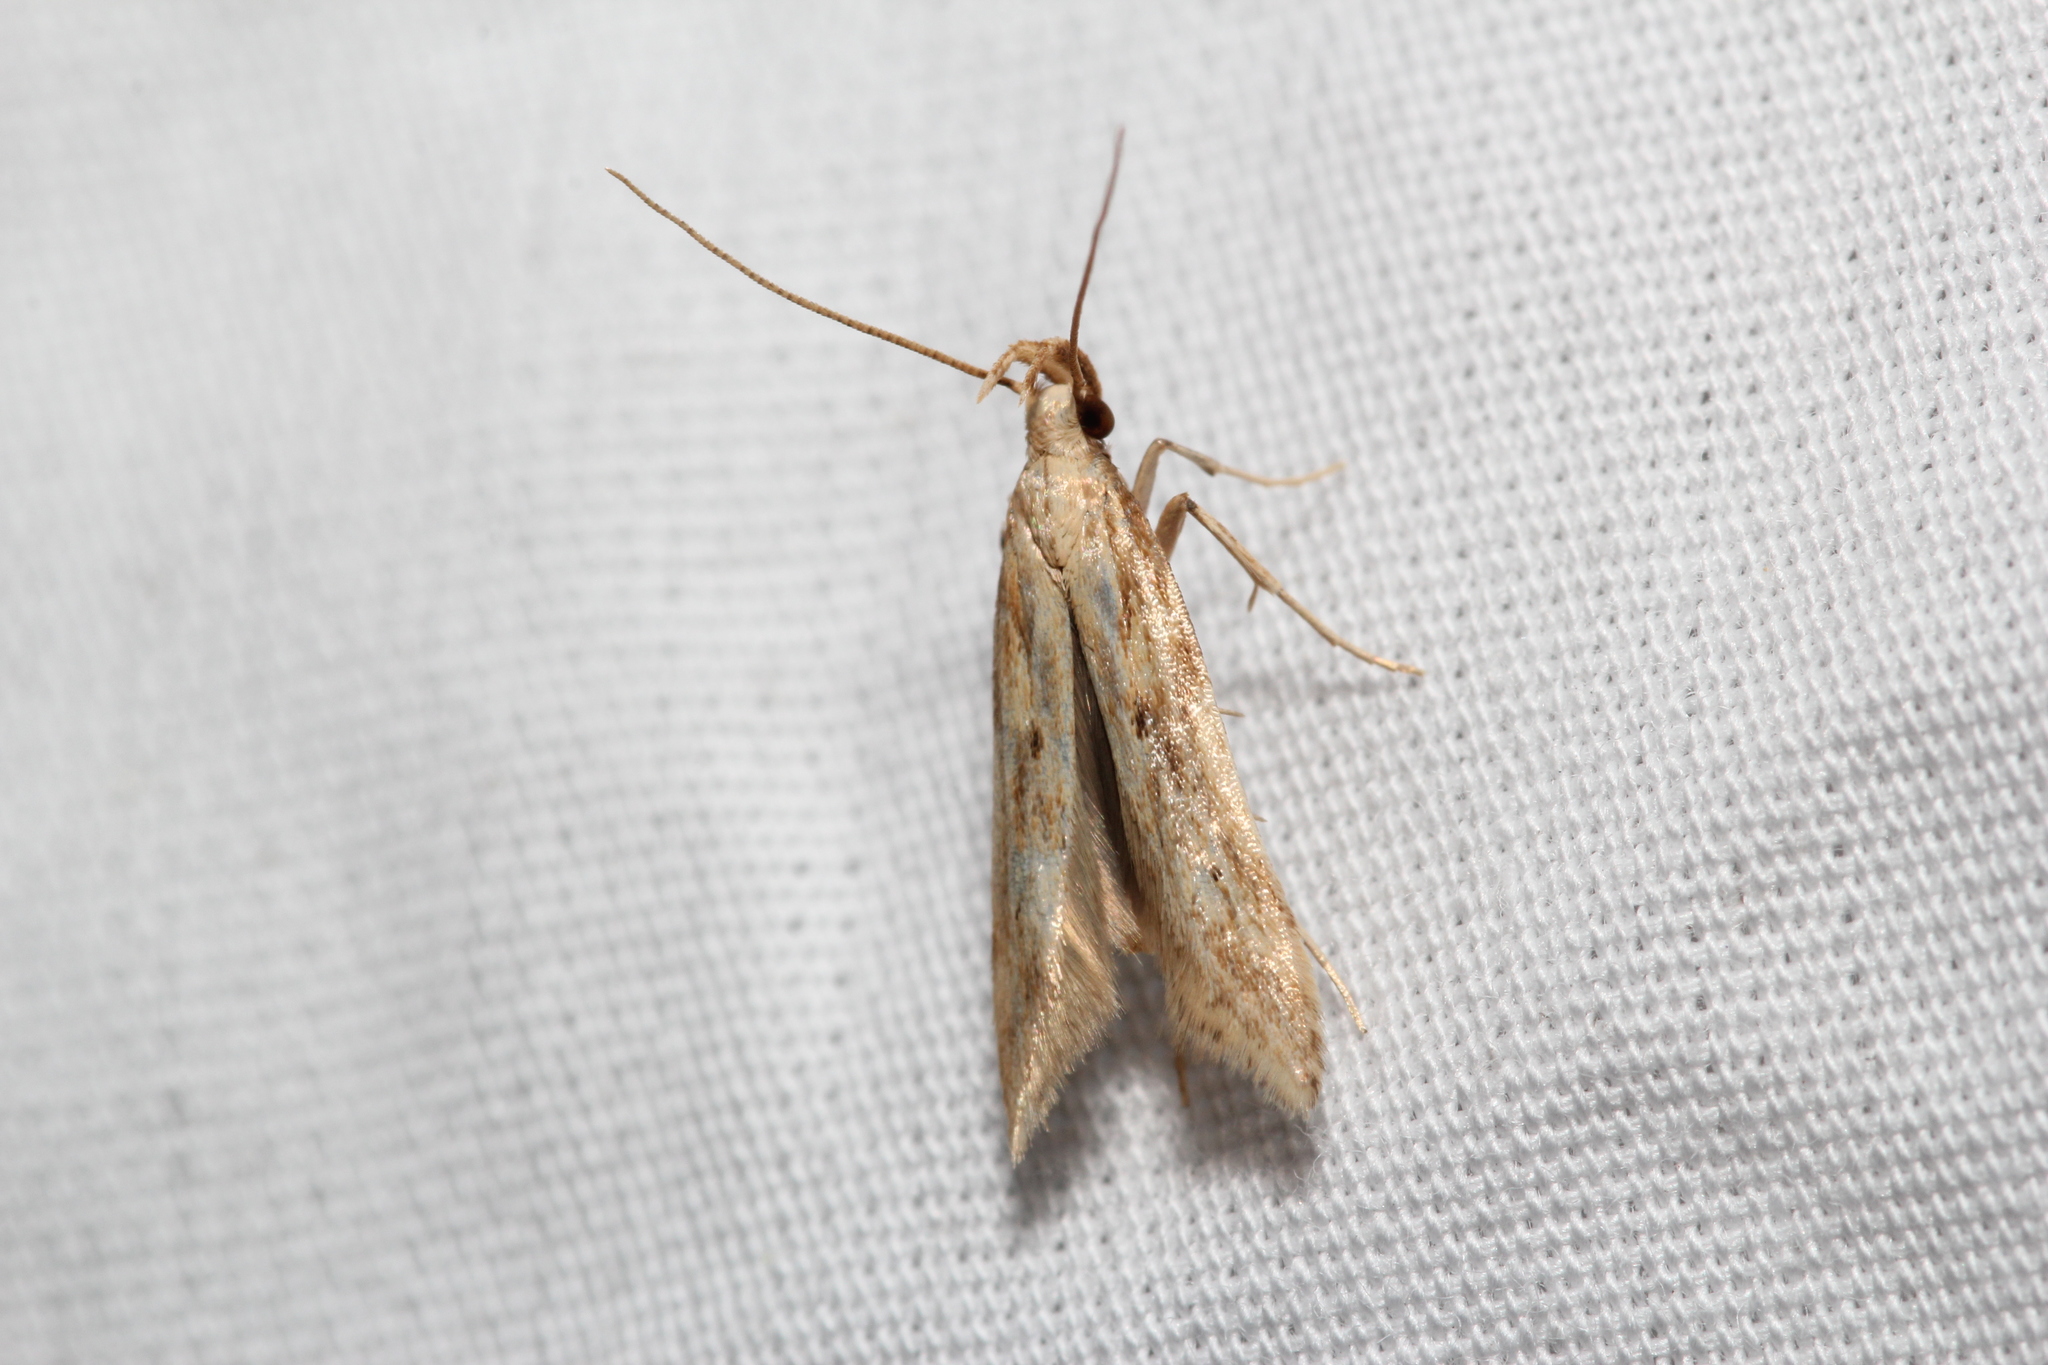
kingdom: Animalia
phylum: Arthropoda
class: Insecta
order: Lepidoptera
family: Gelechiidae
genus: Metzneria
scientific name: Metzneria lappella
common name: Burdock neb
